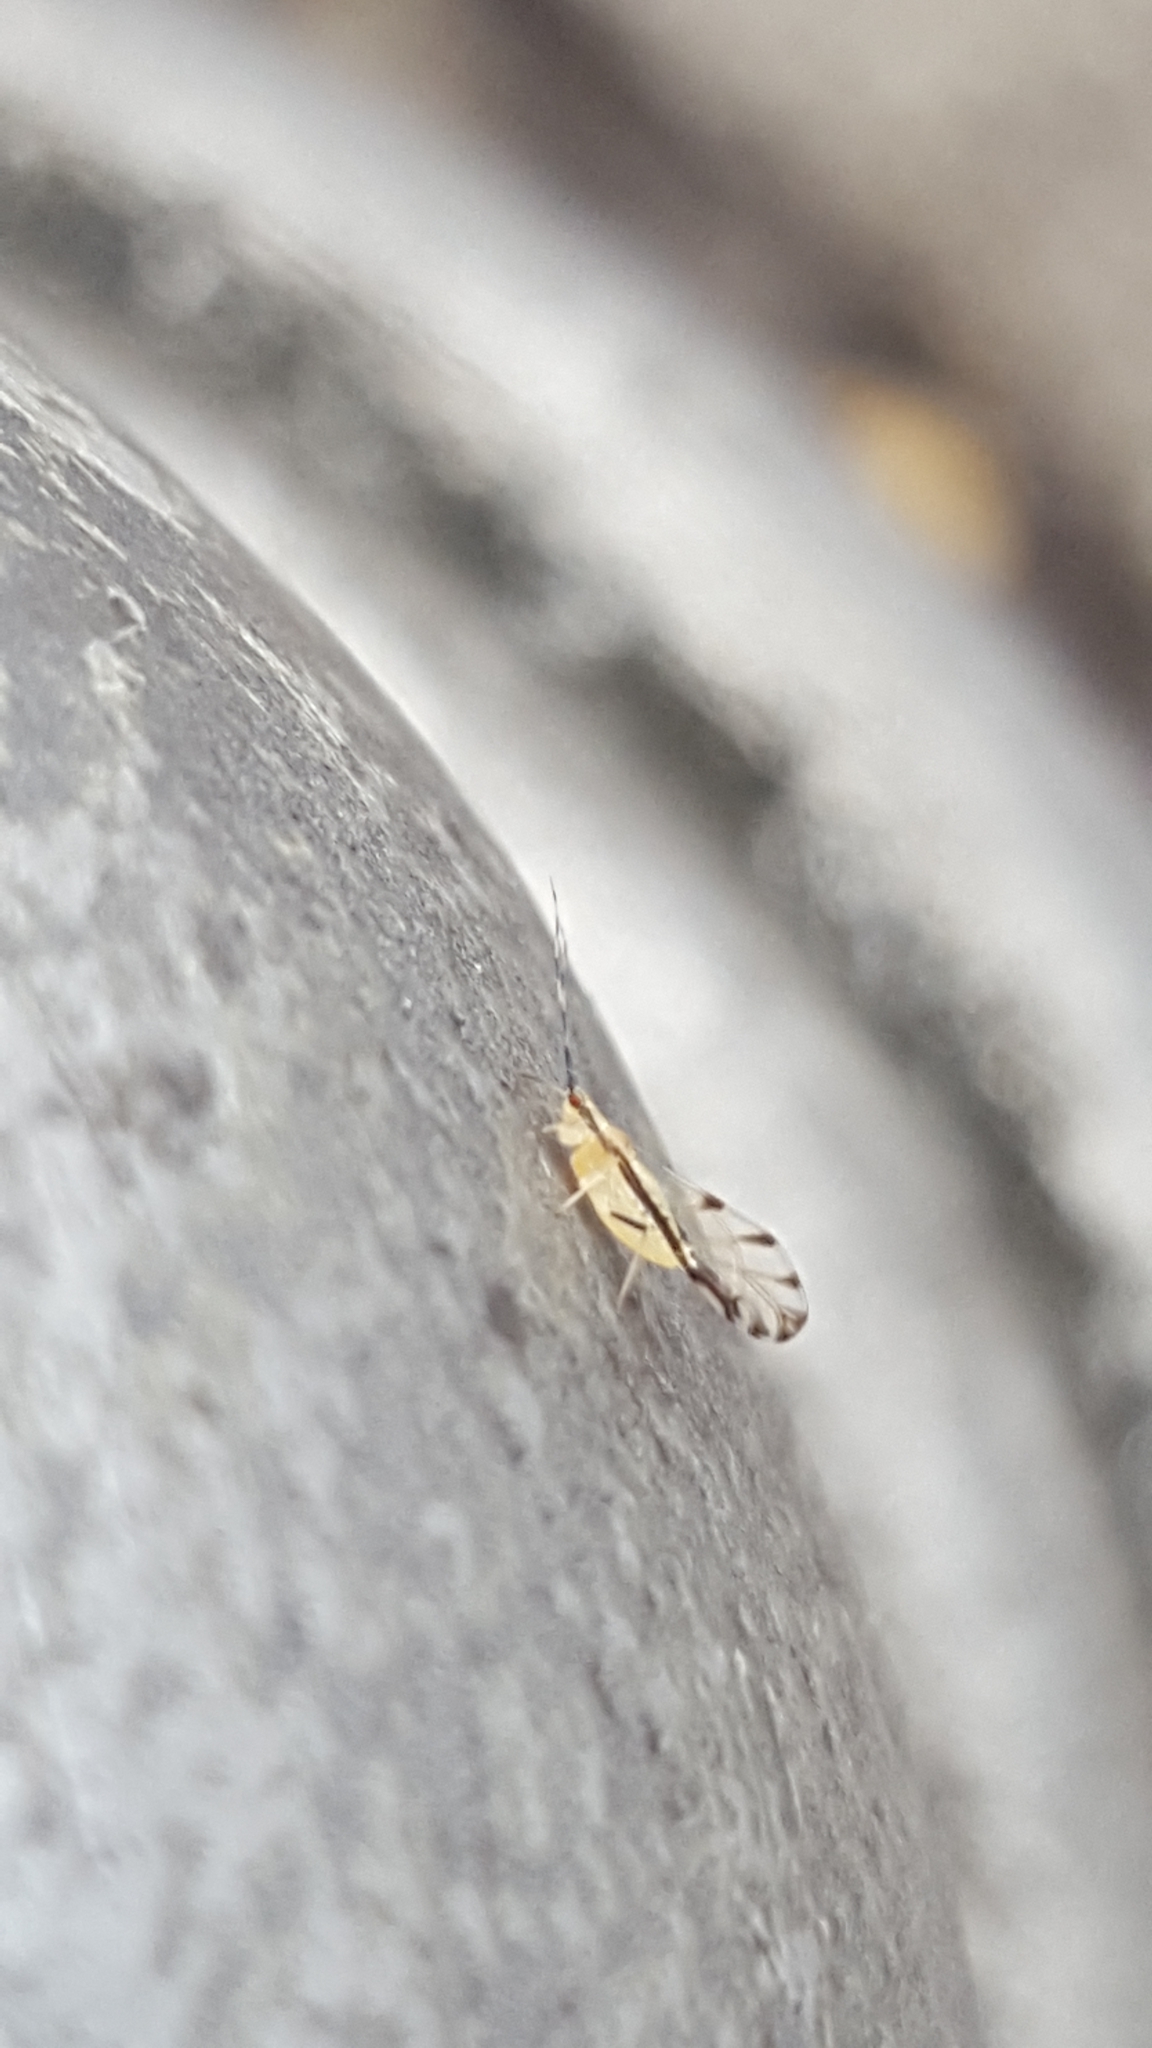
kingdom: Animalia
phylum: Arthropoda
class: Insecta
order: Hemiptera
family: Aphididae
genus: Eucallipterus
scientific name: Eucallipterus tiliae
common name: Aphid
